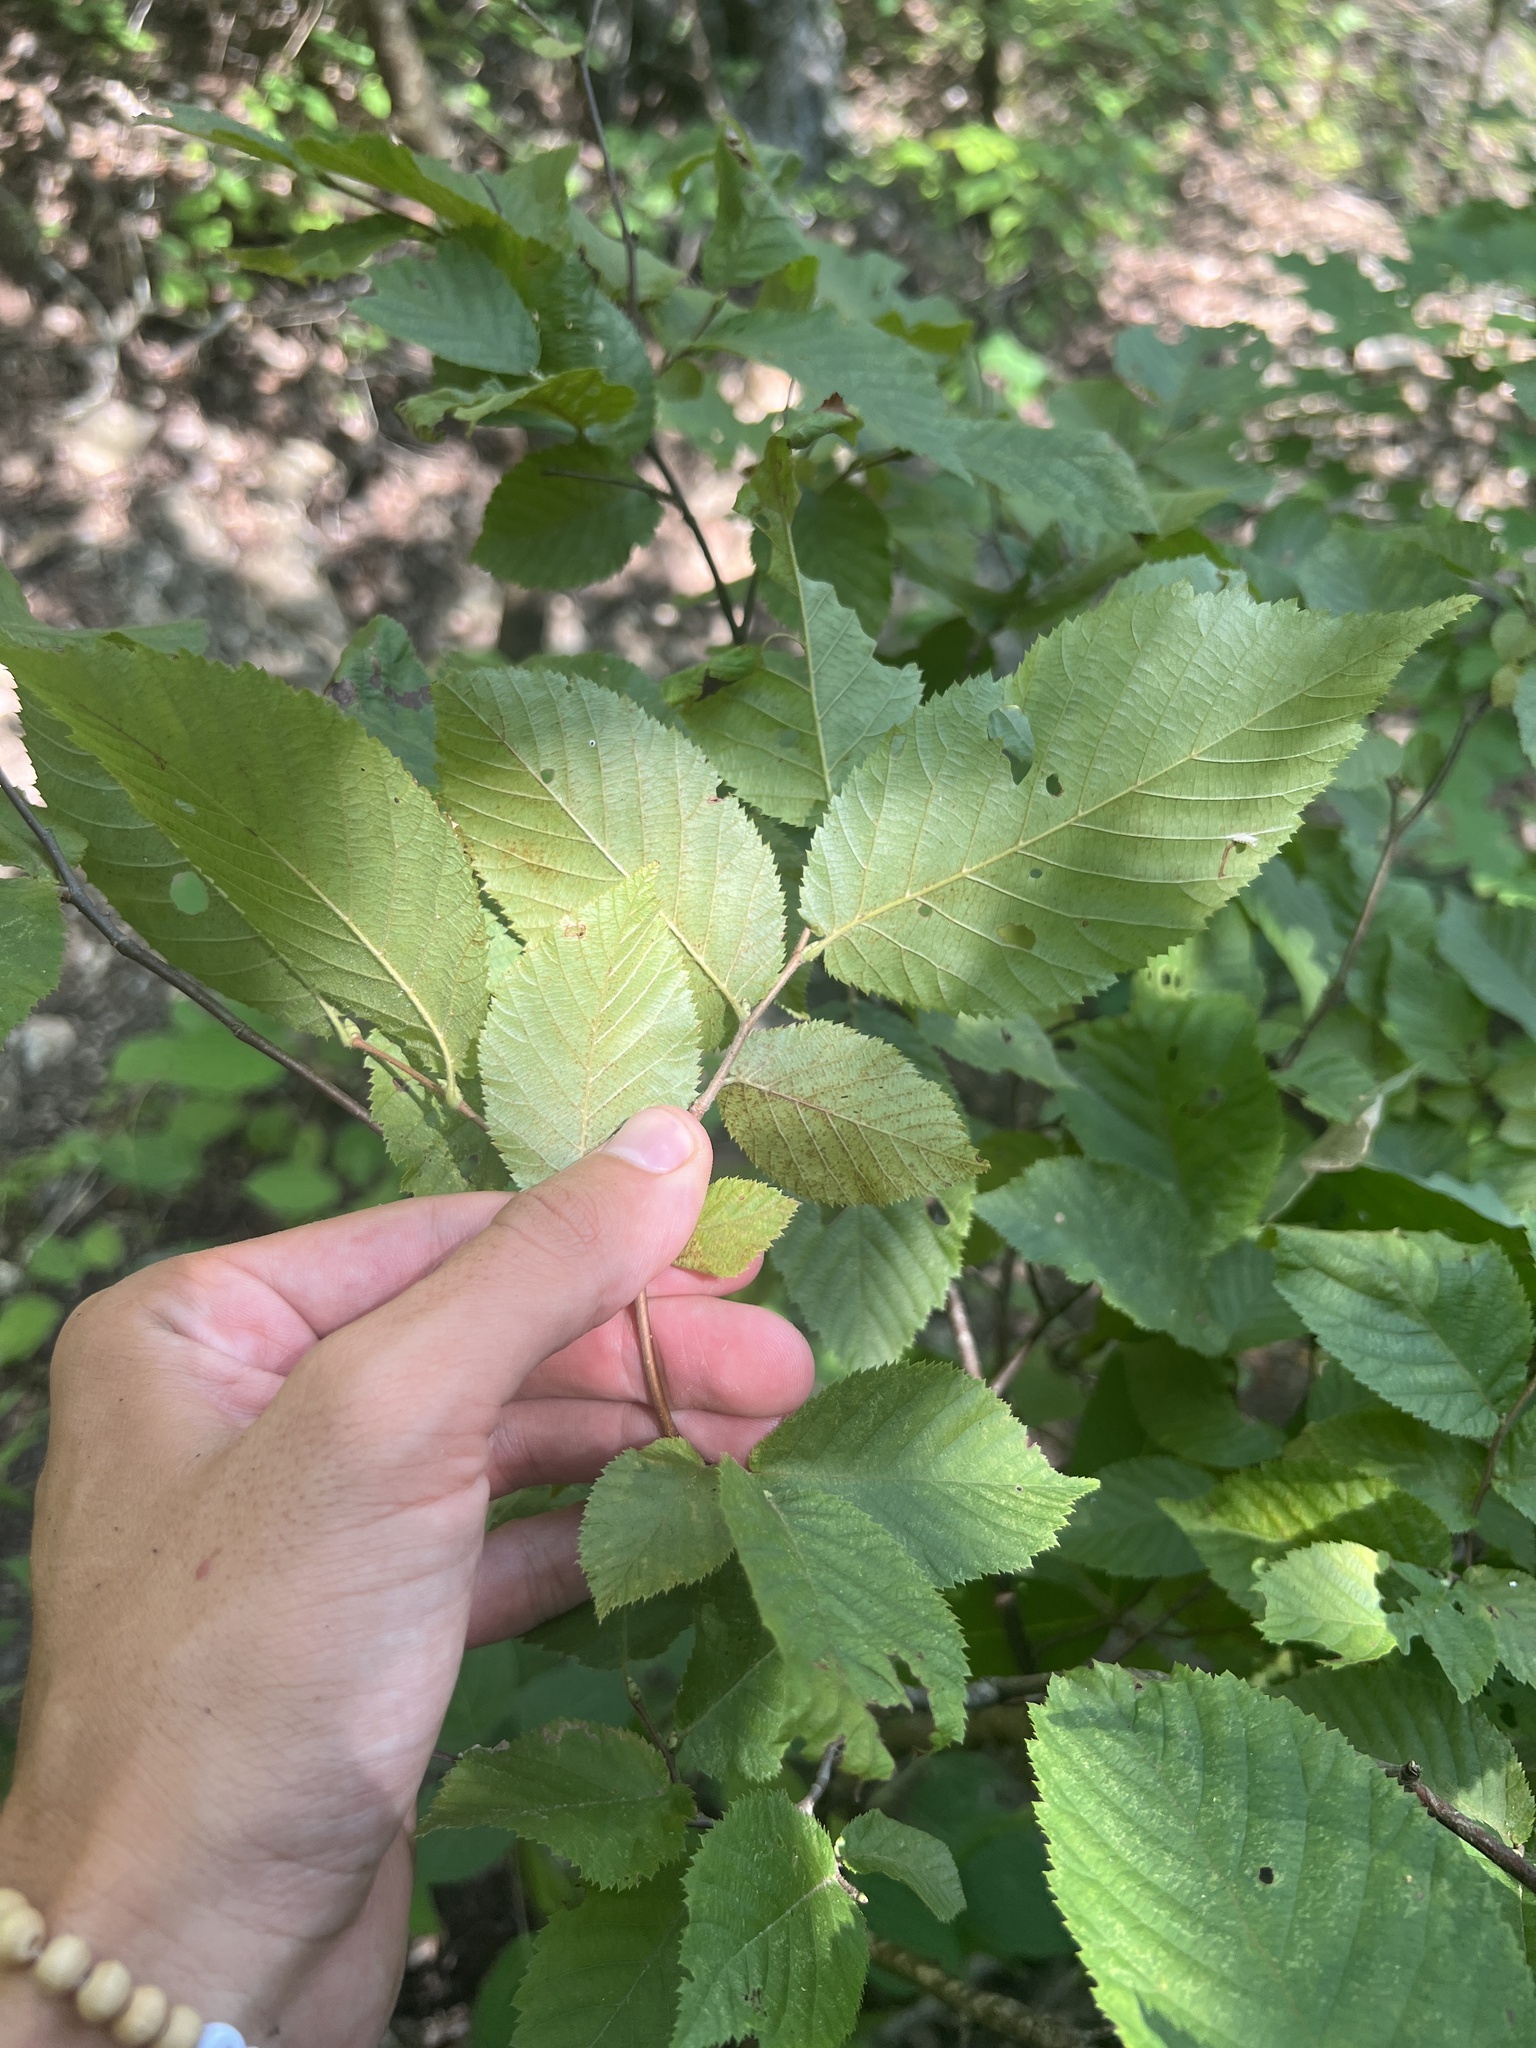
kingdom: Plantae
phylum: Tracheophyta
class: Magnoliopsida
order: Fagales
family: Betulaceae
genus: Ostrya
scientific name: Ostrya virginiana
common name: Ironwood
